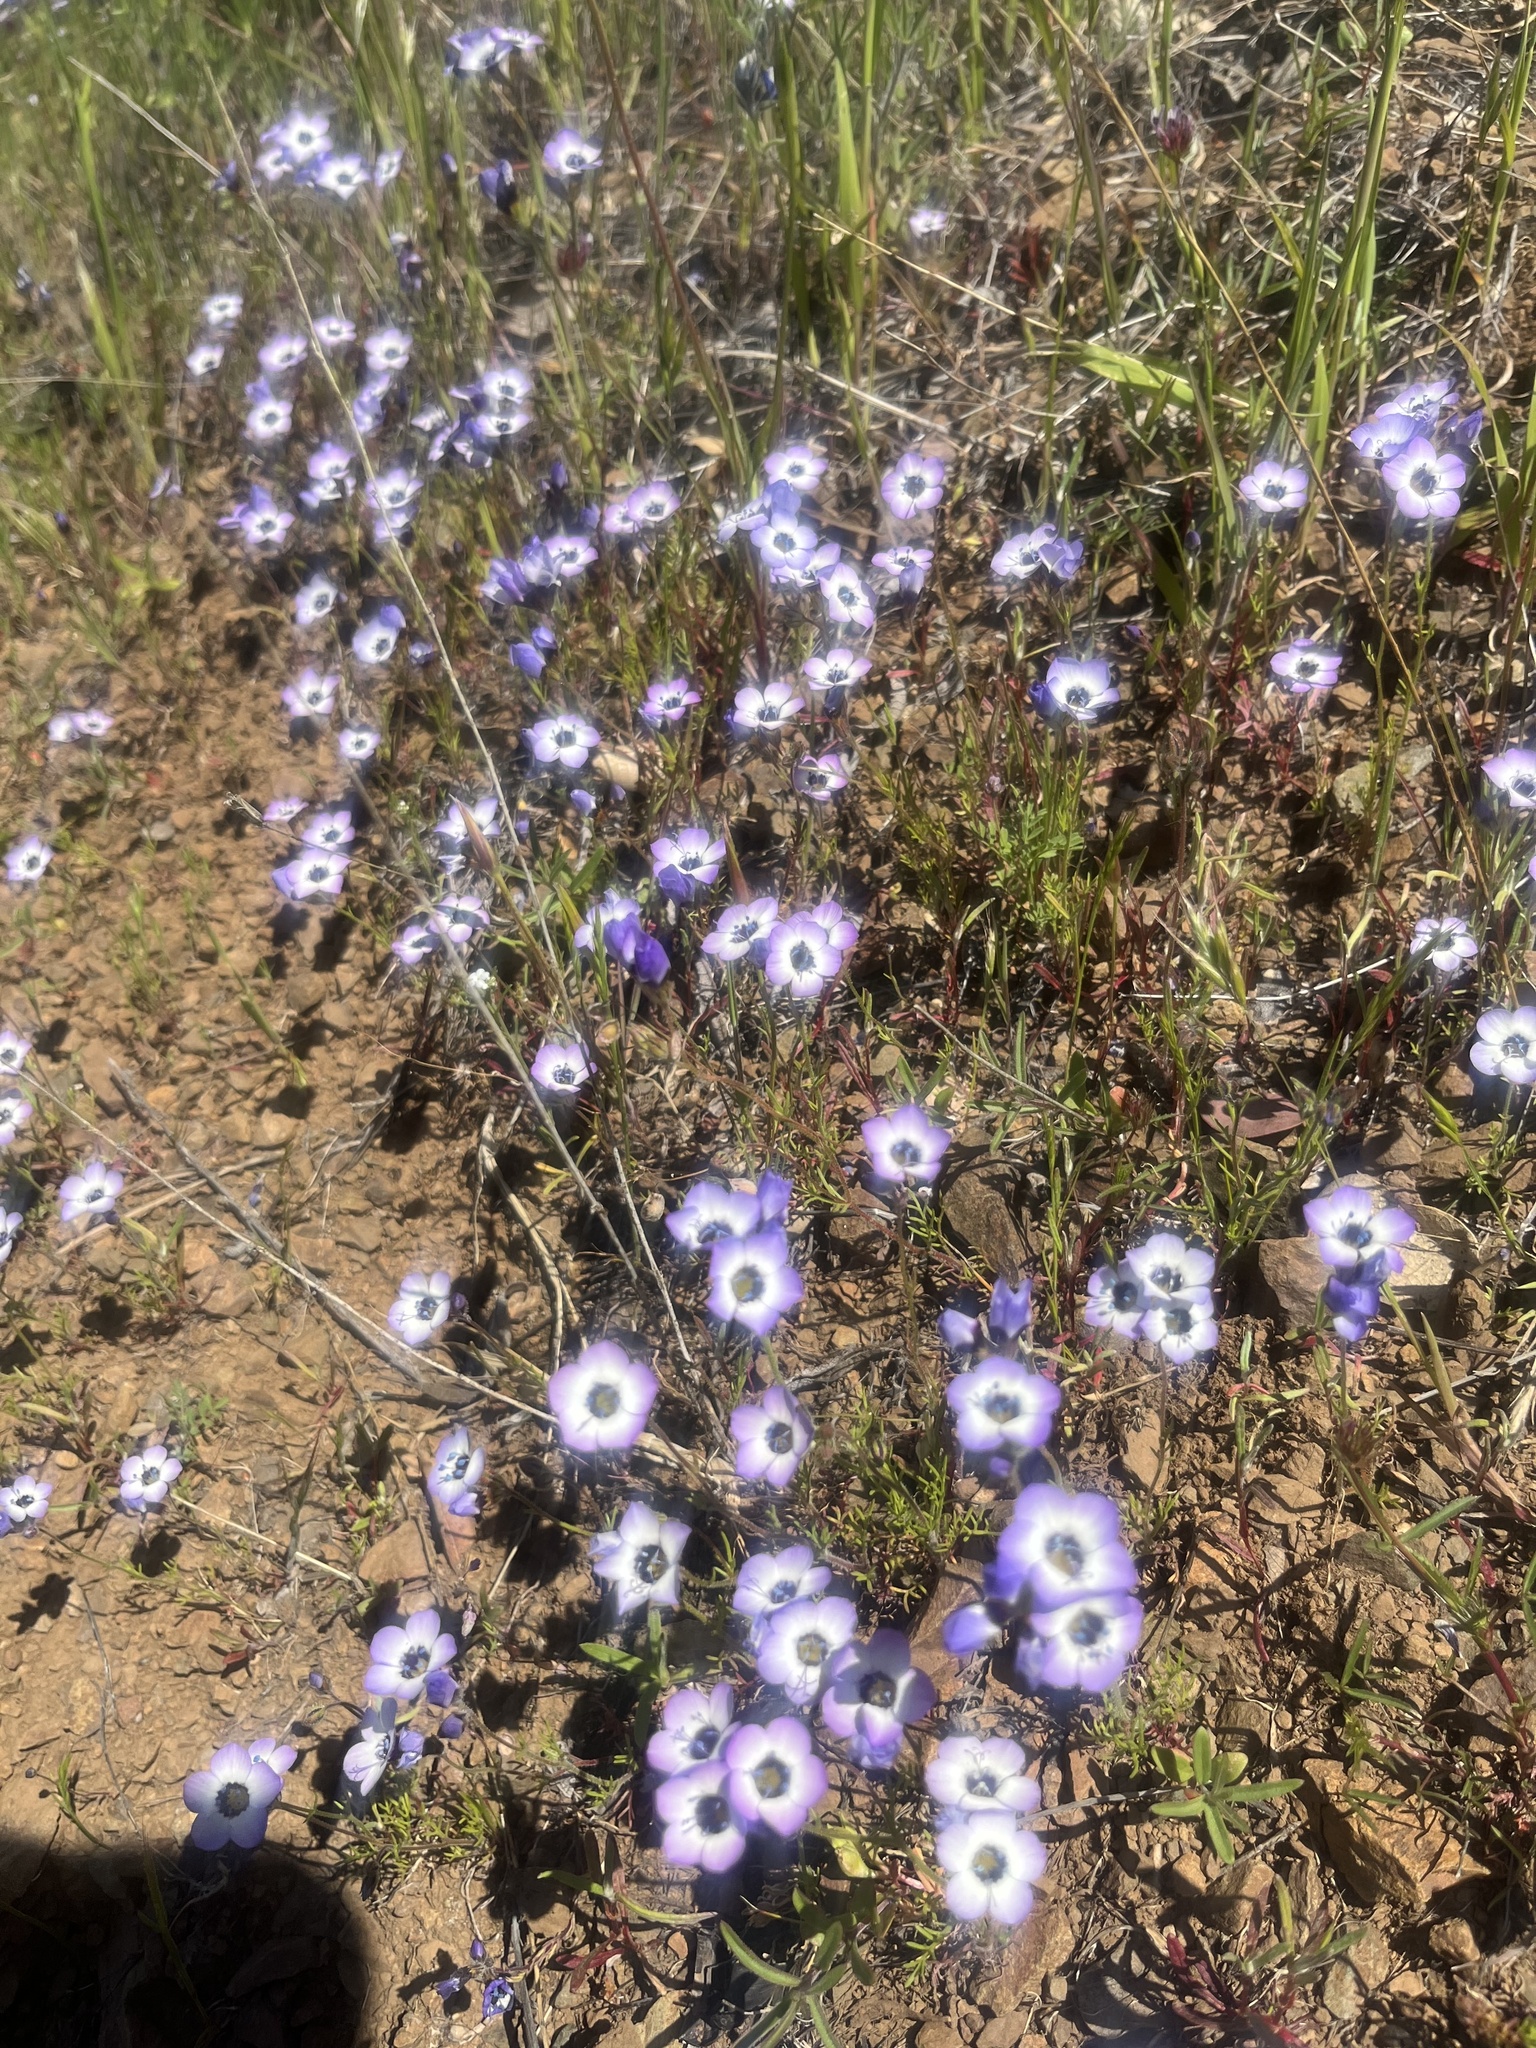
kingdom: Plantae
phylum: Tracheophyta
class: Magnoliopsida
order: Ericales
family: Polemoniaceae
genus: Gilia
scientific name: Gilia tricolor
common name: Bird's-eyes
